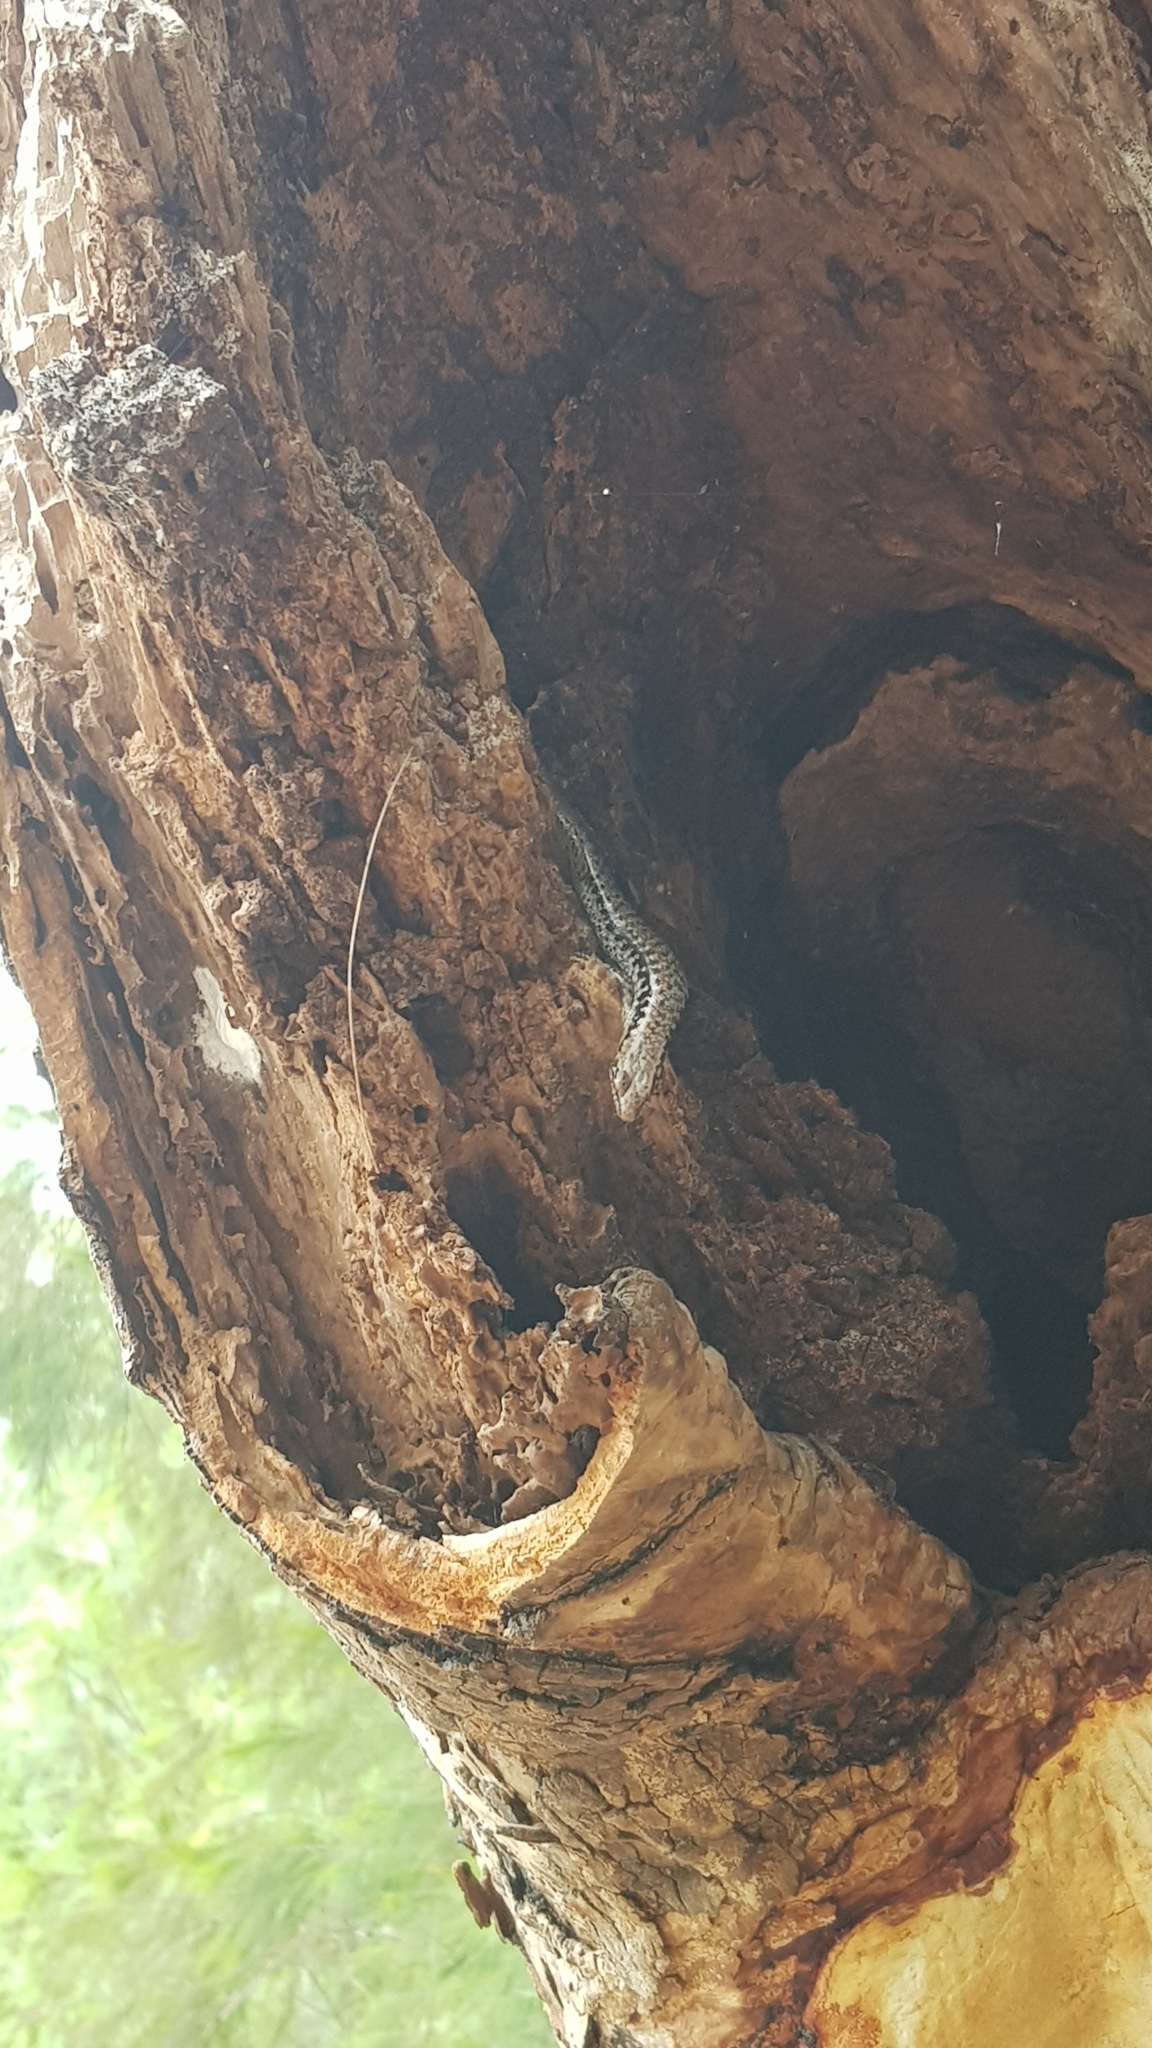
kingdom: Animalia
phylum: Chordata
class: Squamata
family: Scincidae
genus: Concinnia
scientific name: Concinnia tenuis
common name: Bar-sided forest-skink
